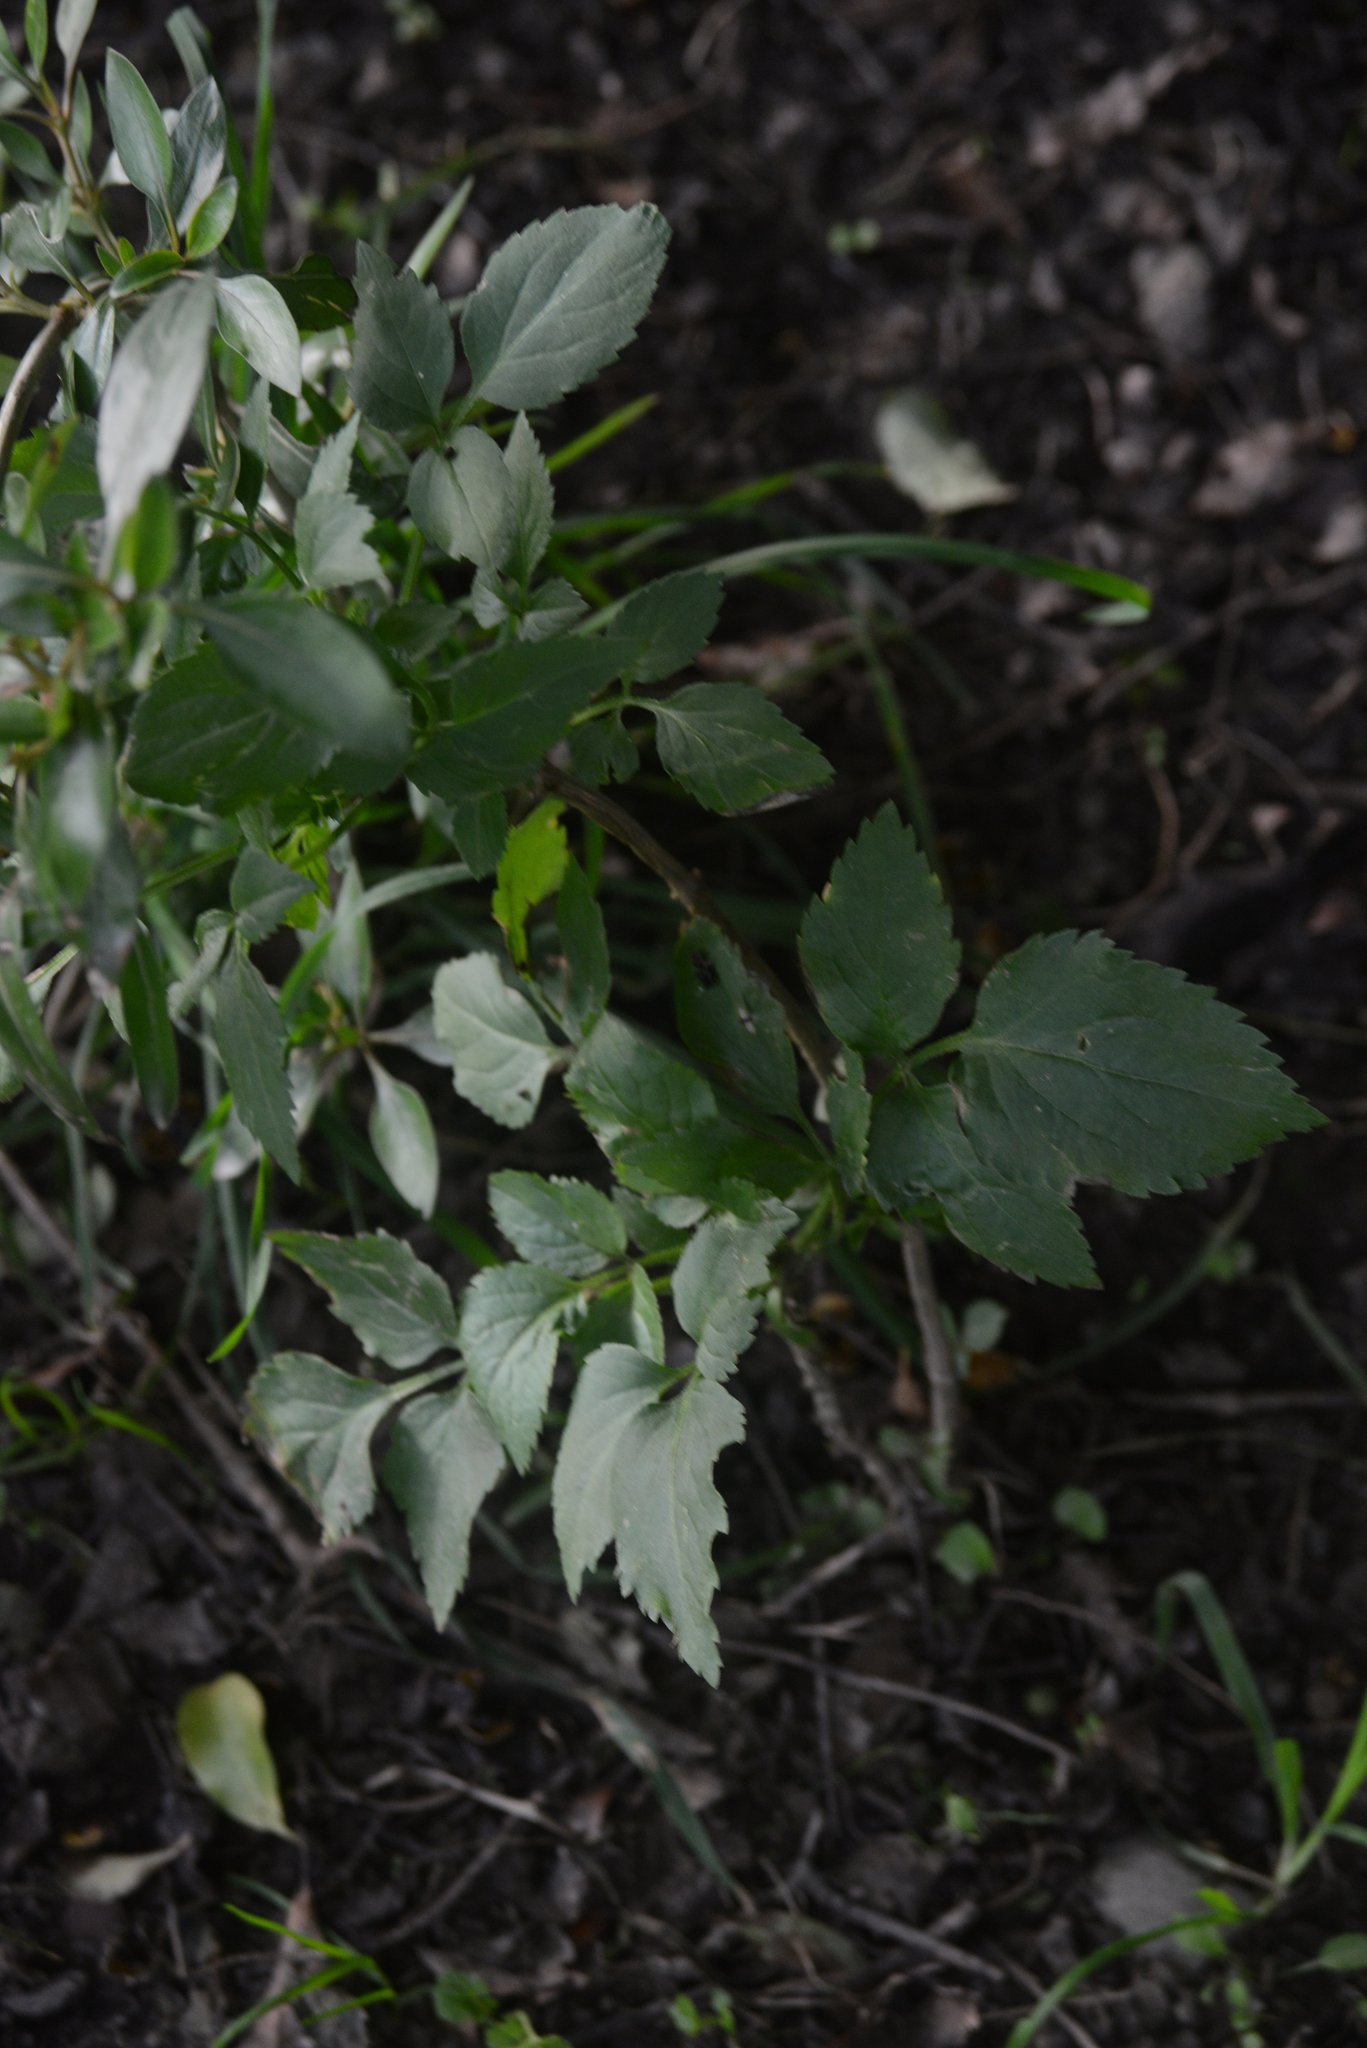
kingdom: Plantae
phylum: Tracheophyta
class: Magnoliopsida
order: Dipsacales
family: Viburnaceae
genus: Sambucus
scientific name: Sambucus nigra
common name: Elder
